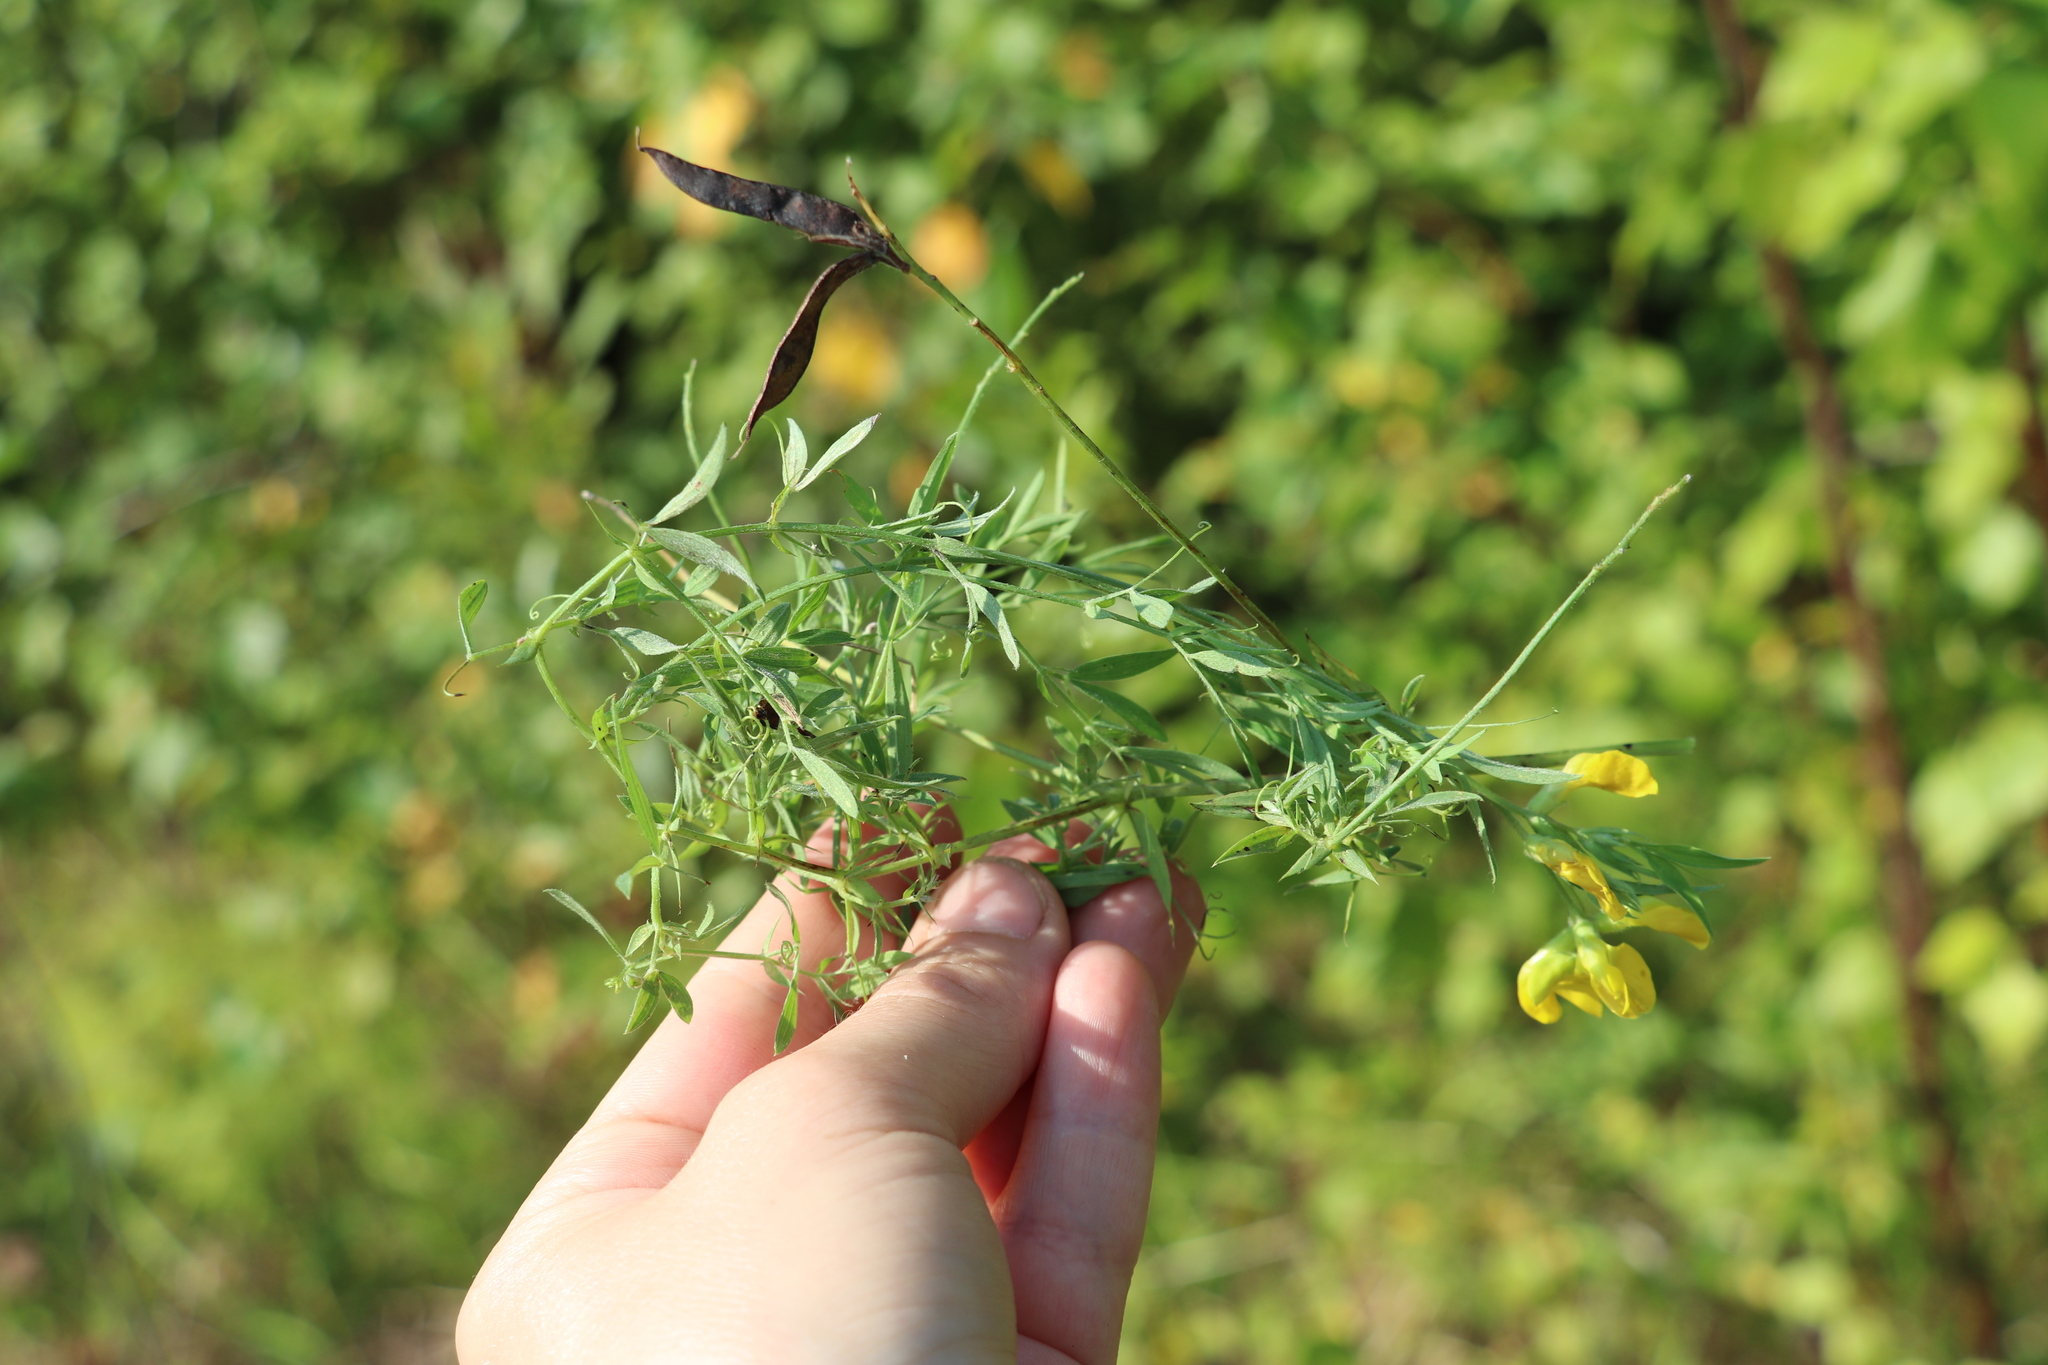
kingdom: Plantae
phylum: Tracheophyta
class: Magnoliopsida
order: Fabales
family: Fabaceae
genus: Lathyrus
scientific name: Lathyrus pratensis
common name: Meadow vetchling
